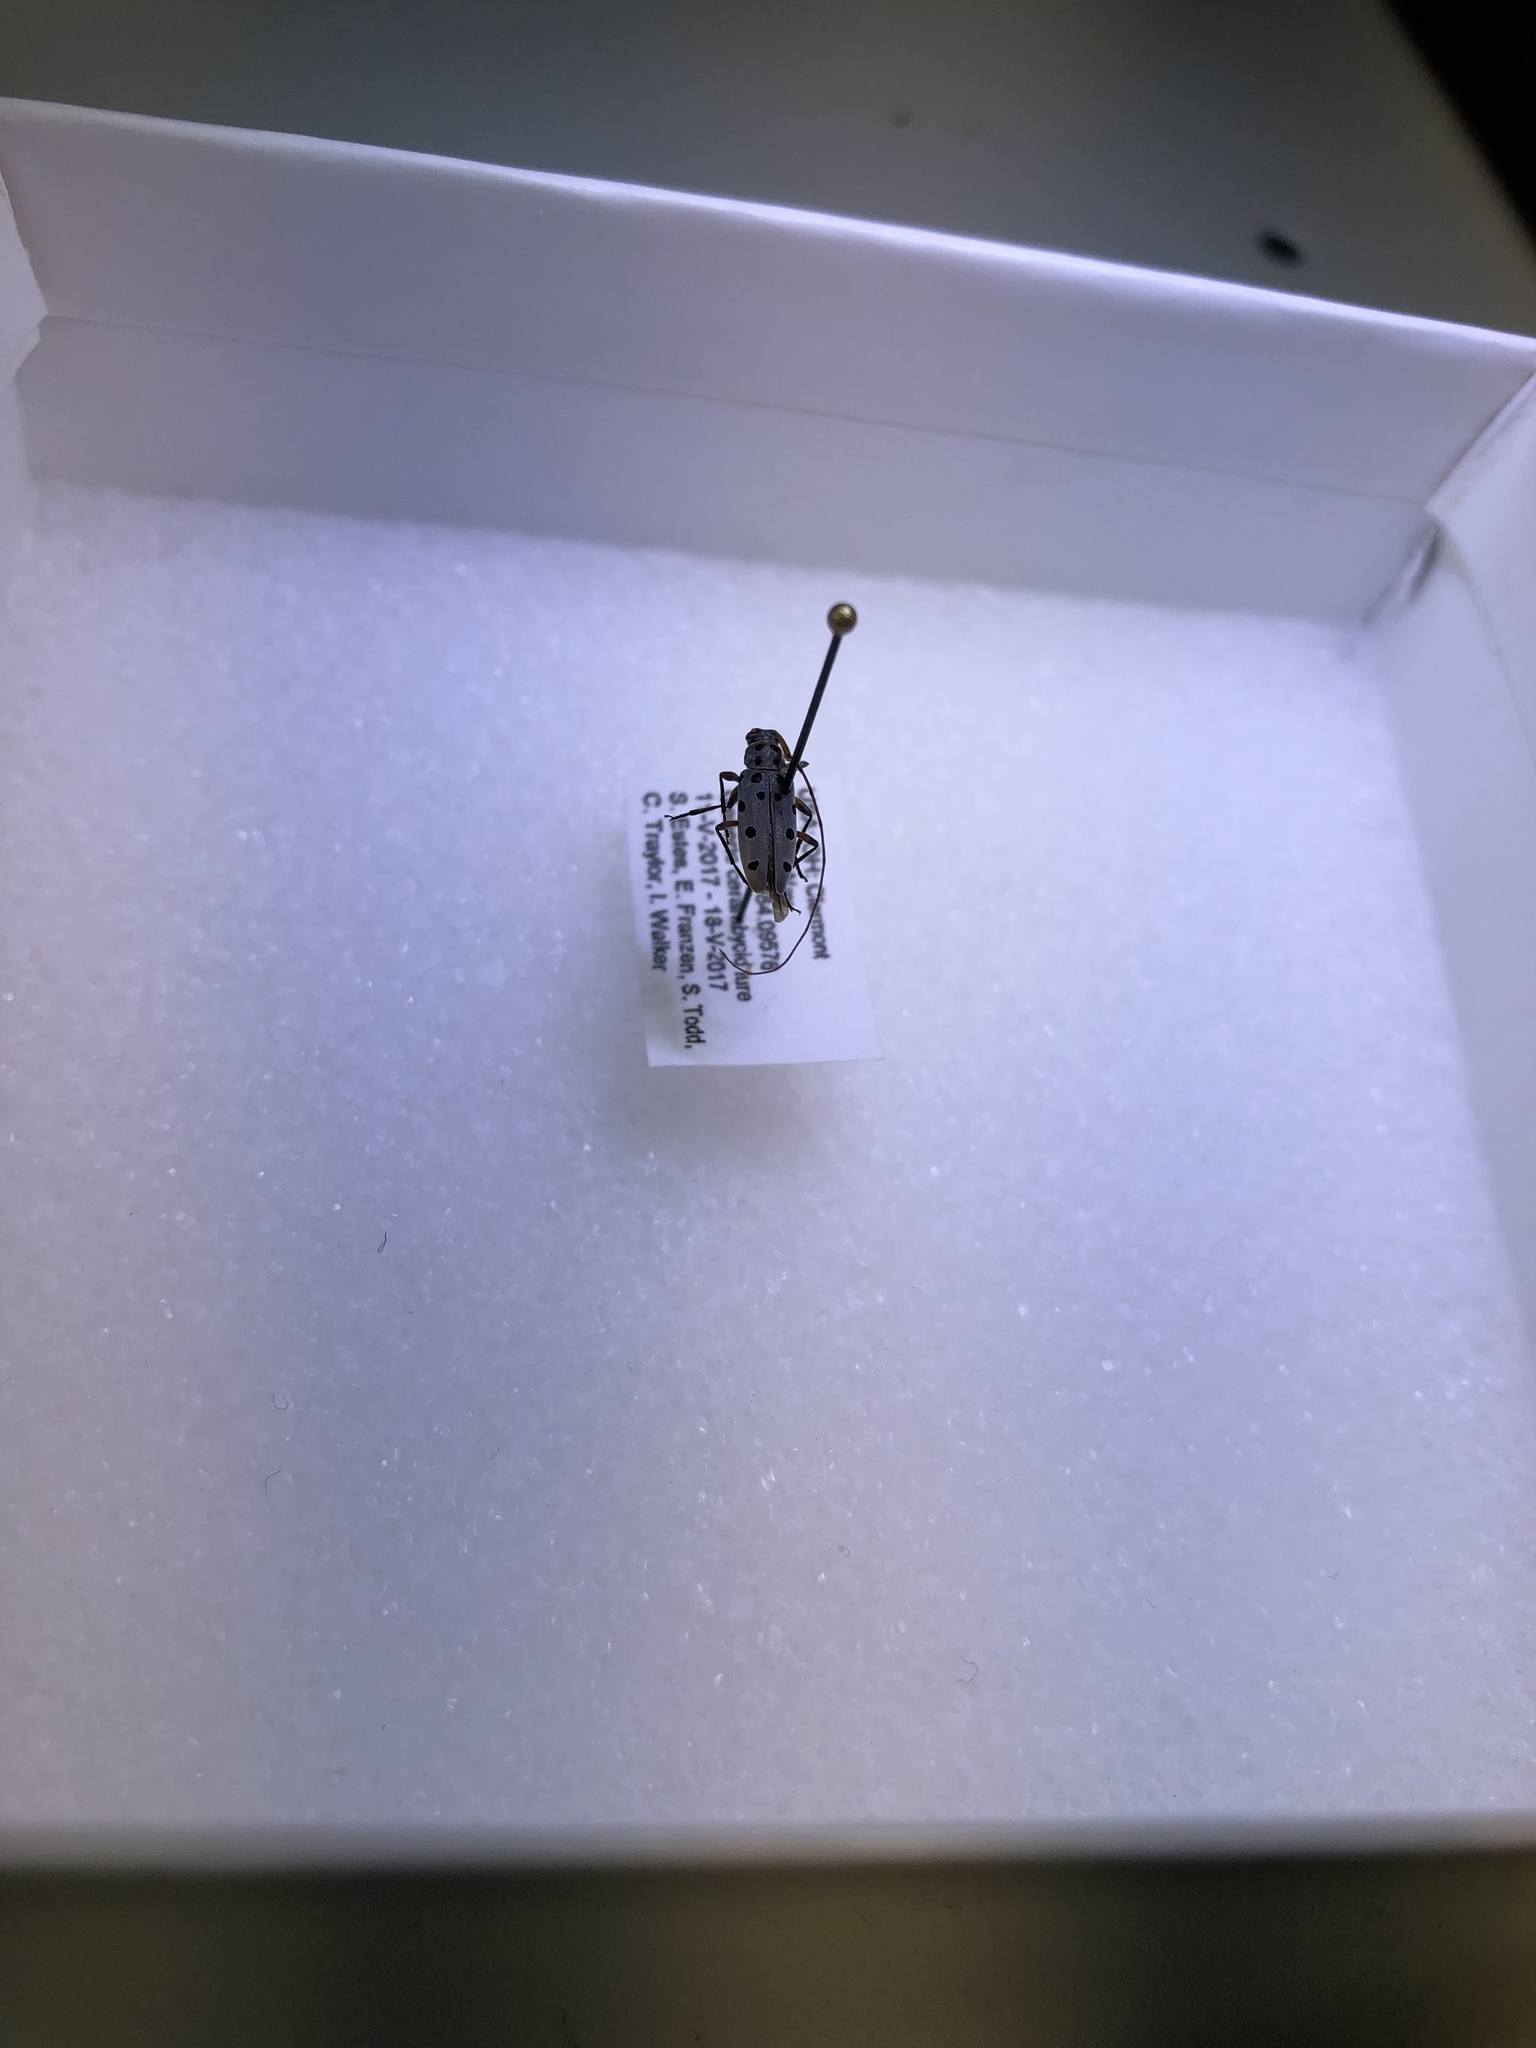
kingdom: Animalia
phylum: Arthropoda
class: Insecta
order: Coleoptera
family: Cerambycidae
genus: Lepturges
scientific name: Lepturges regularis
